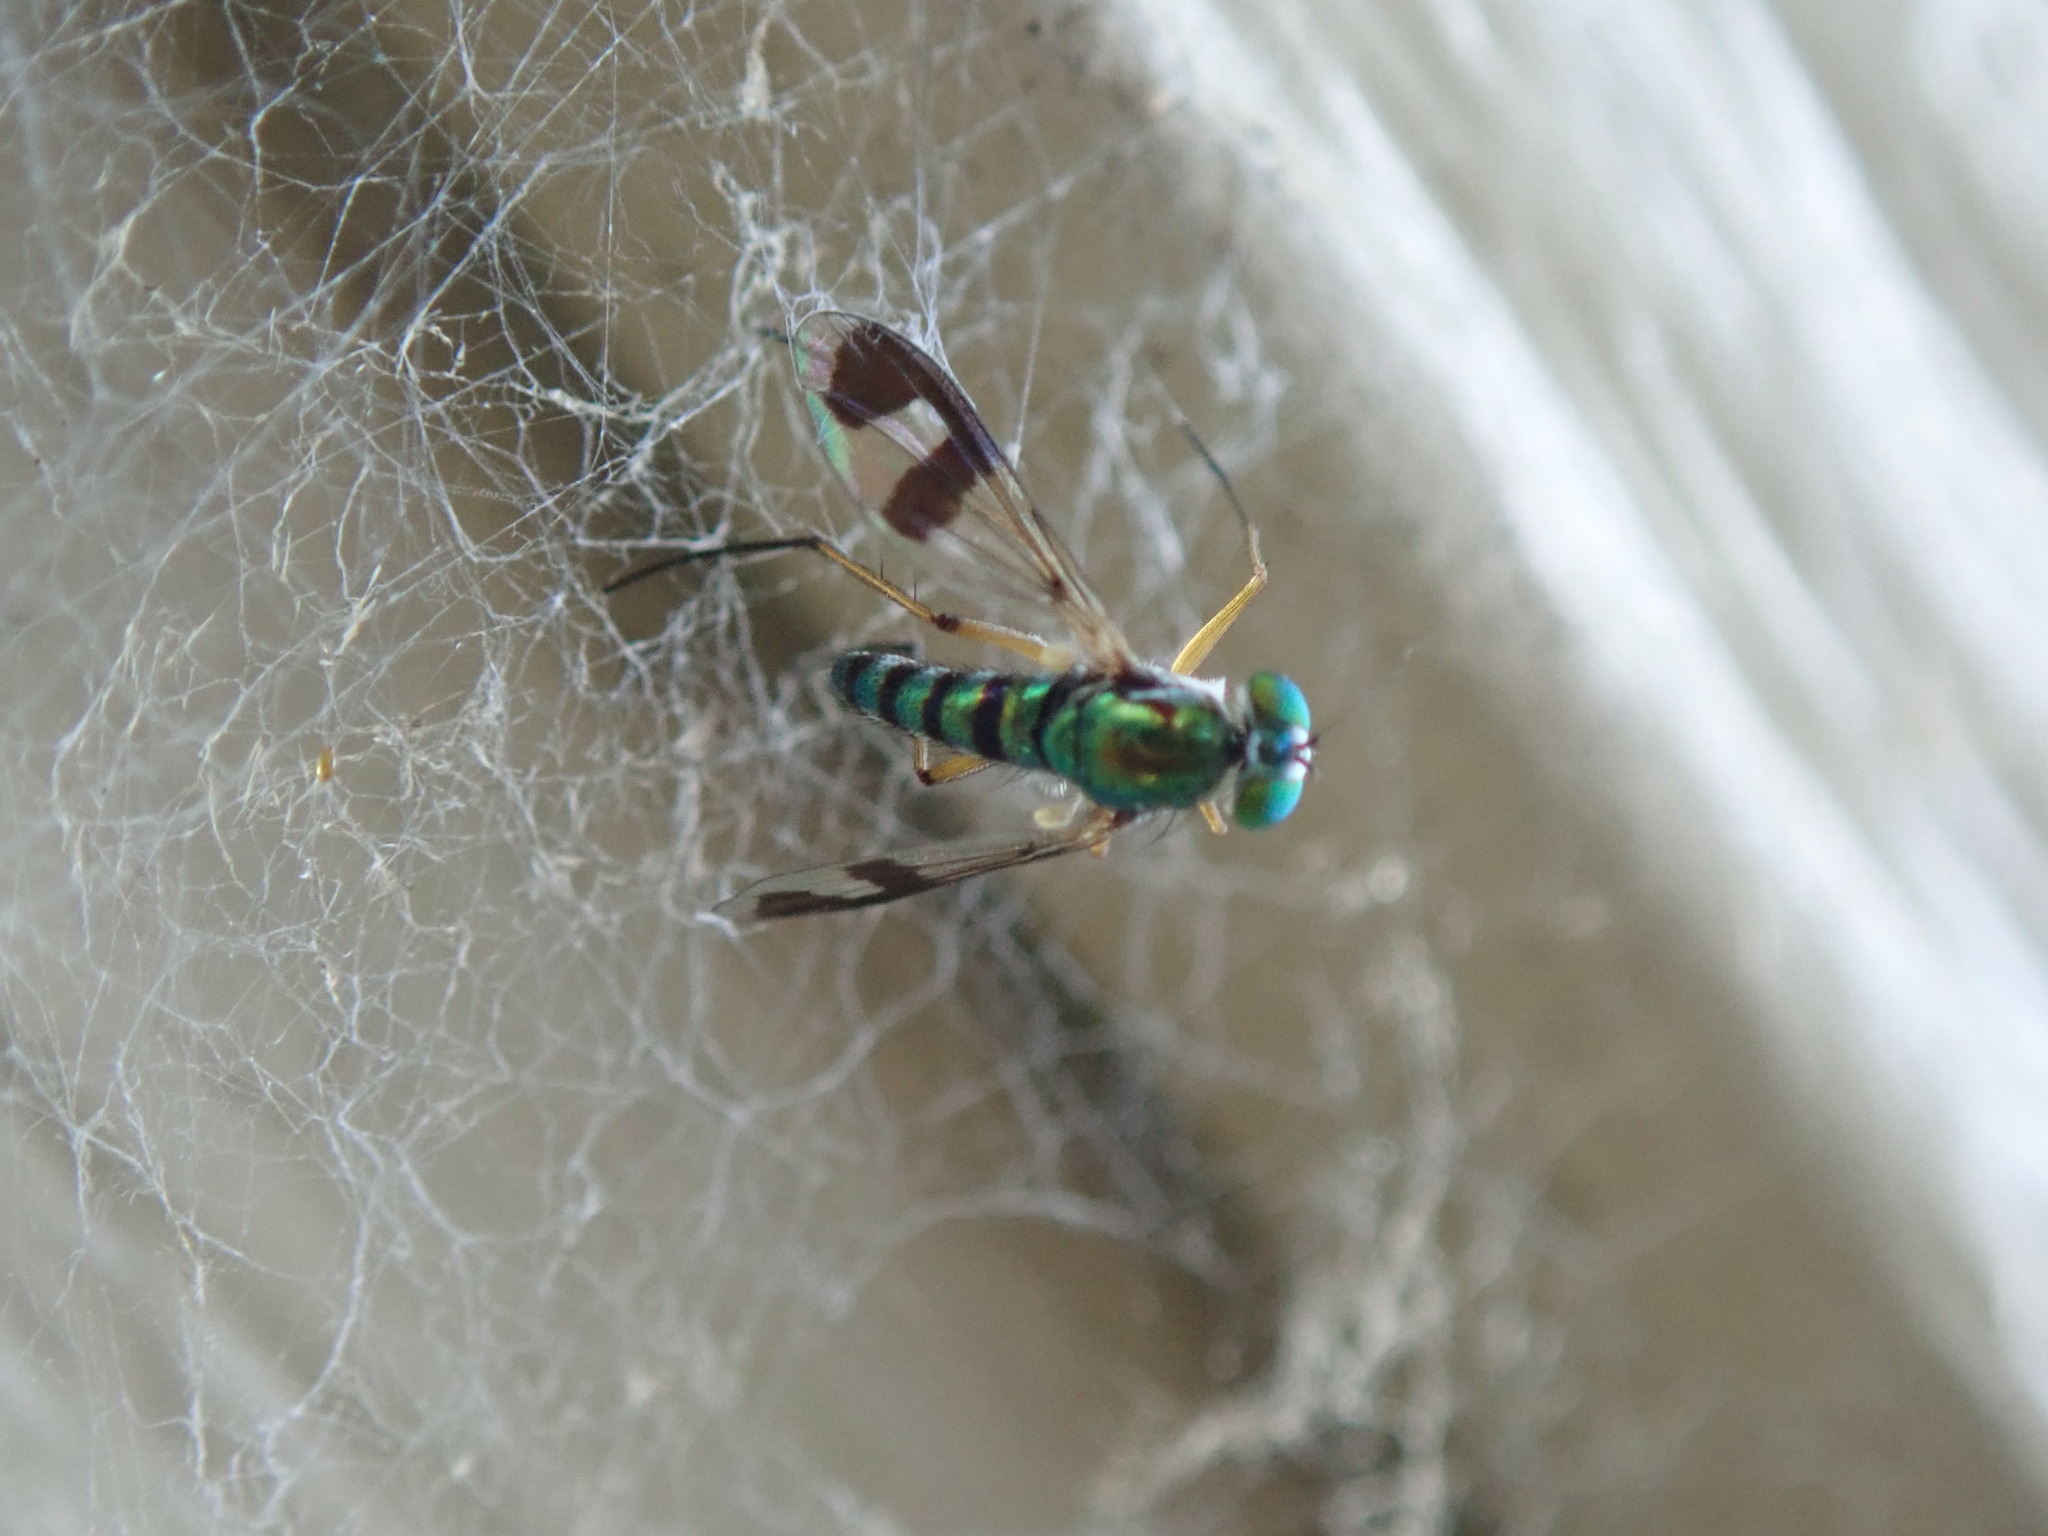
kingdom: Animalia
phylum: Arthropoda
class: Insecta
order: Diptera
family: Dolichopodidae
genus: Austrosciapus
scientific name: Austrosciapus
